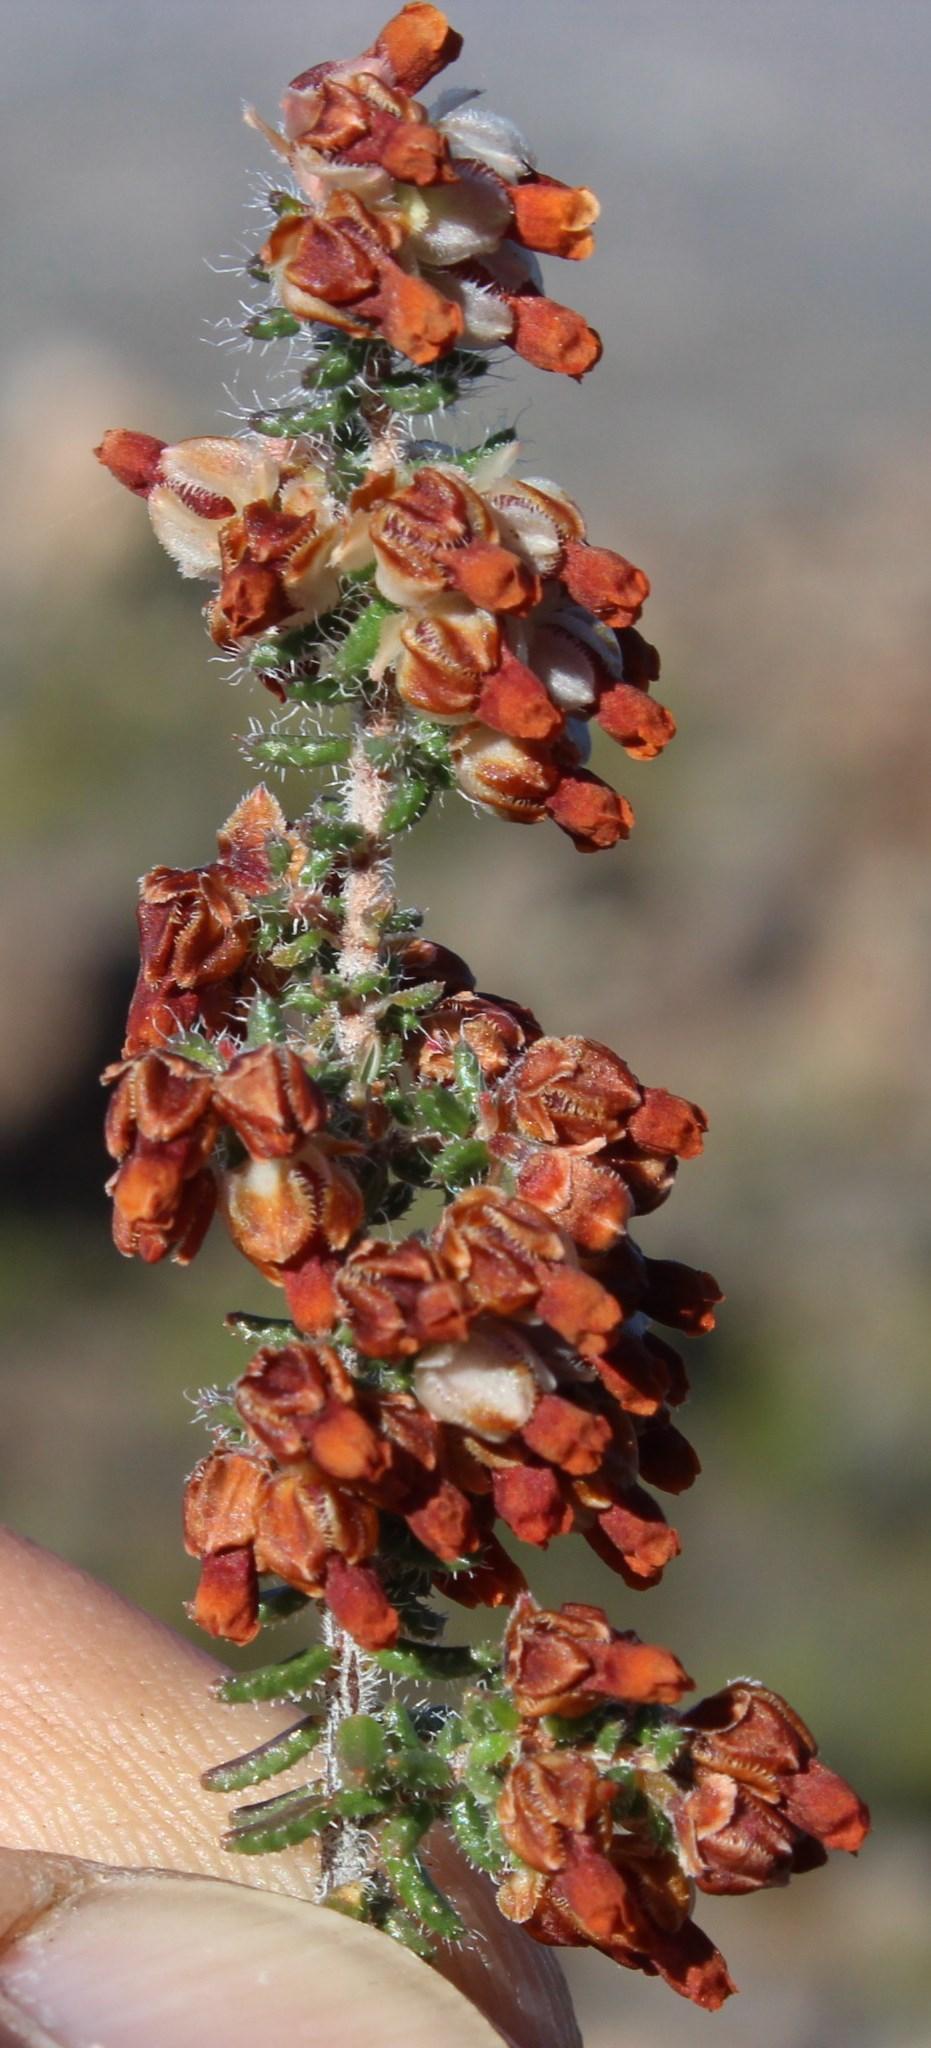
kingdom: Plantae
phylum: Tracheophyta
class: Magnoliopsida
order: Ericales
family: Ericaceae
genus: Erica
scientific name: Erica totta
